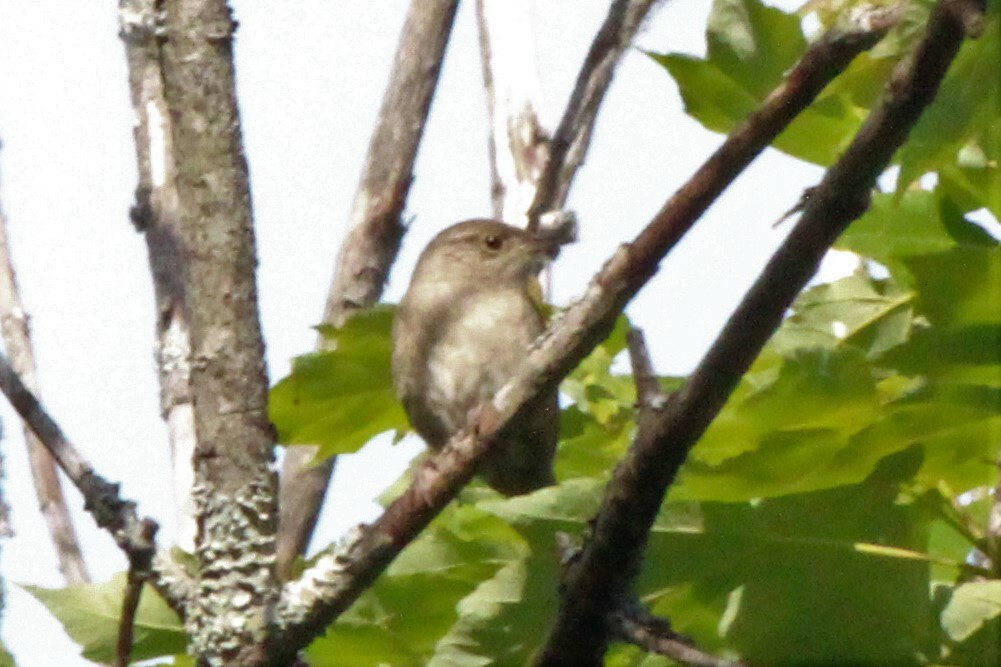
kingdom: Animalia
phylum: Chordata
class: Aves
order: Passeriformes
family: Troglodytidae
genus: Troglodytes
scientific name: Troglodytes aedon
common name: House wren
